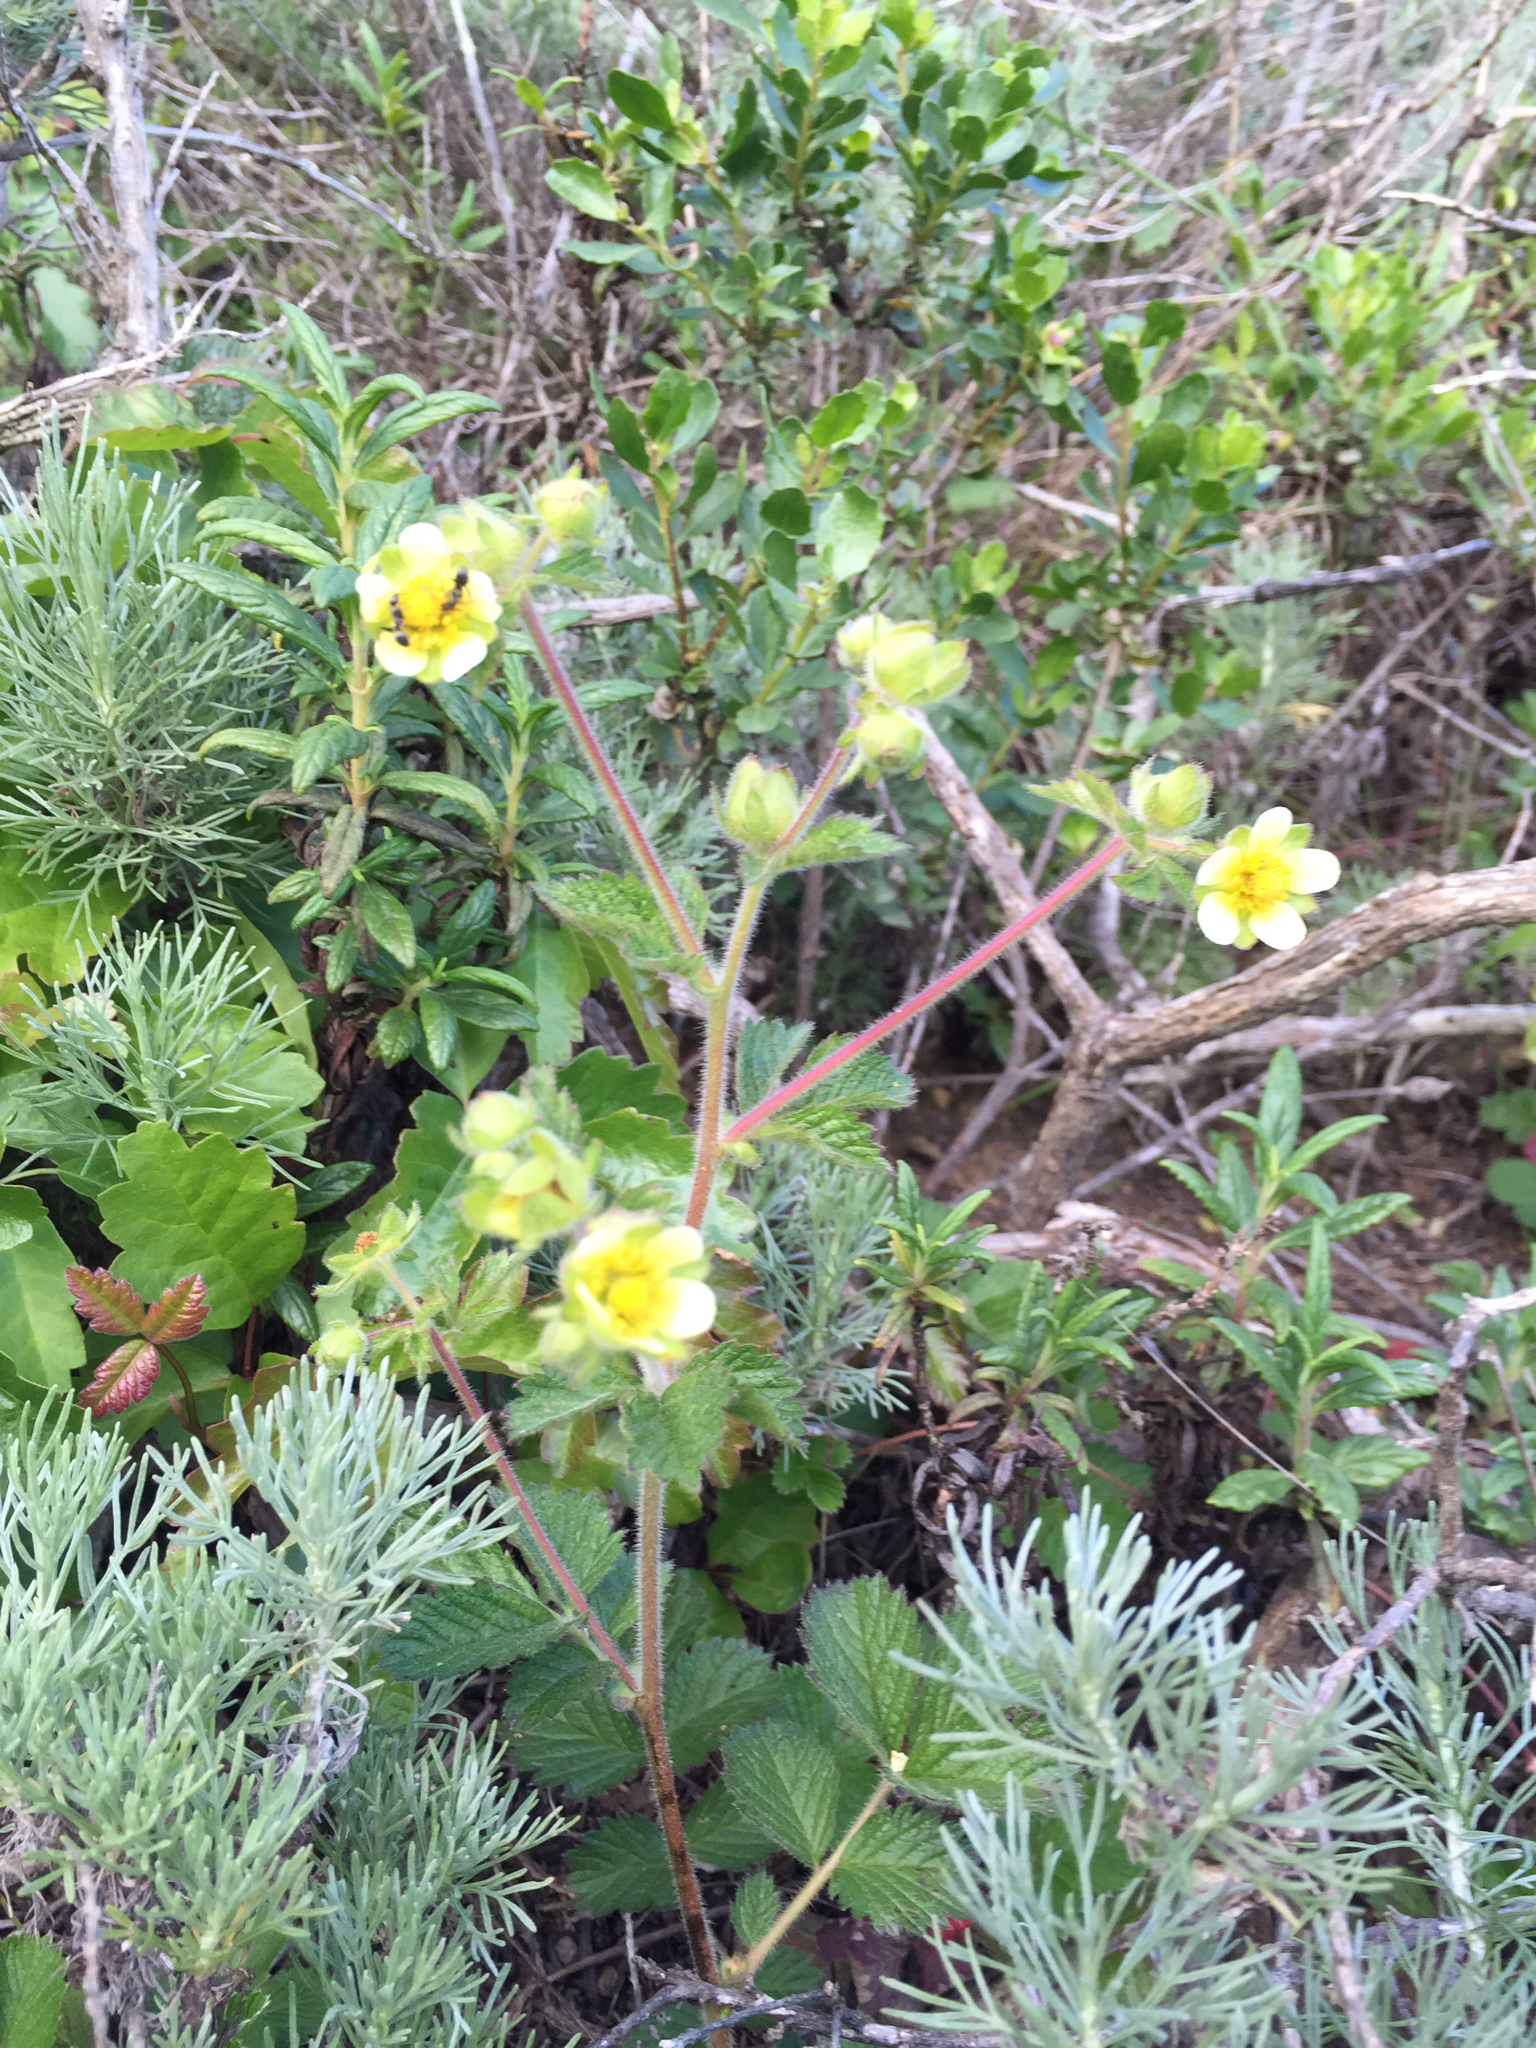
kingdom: Plantae
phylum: Tracheophyta
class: Magnoliopsida
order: Rosales
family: Rosaceae
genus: Drymocallis
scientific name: Drymocallis glandulosa
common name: Sticky cinquefoil
